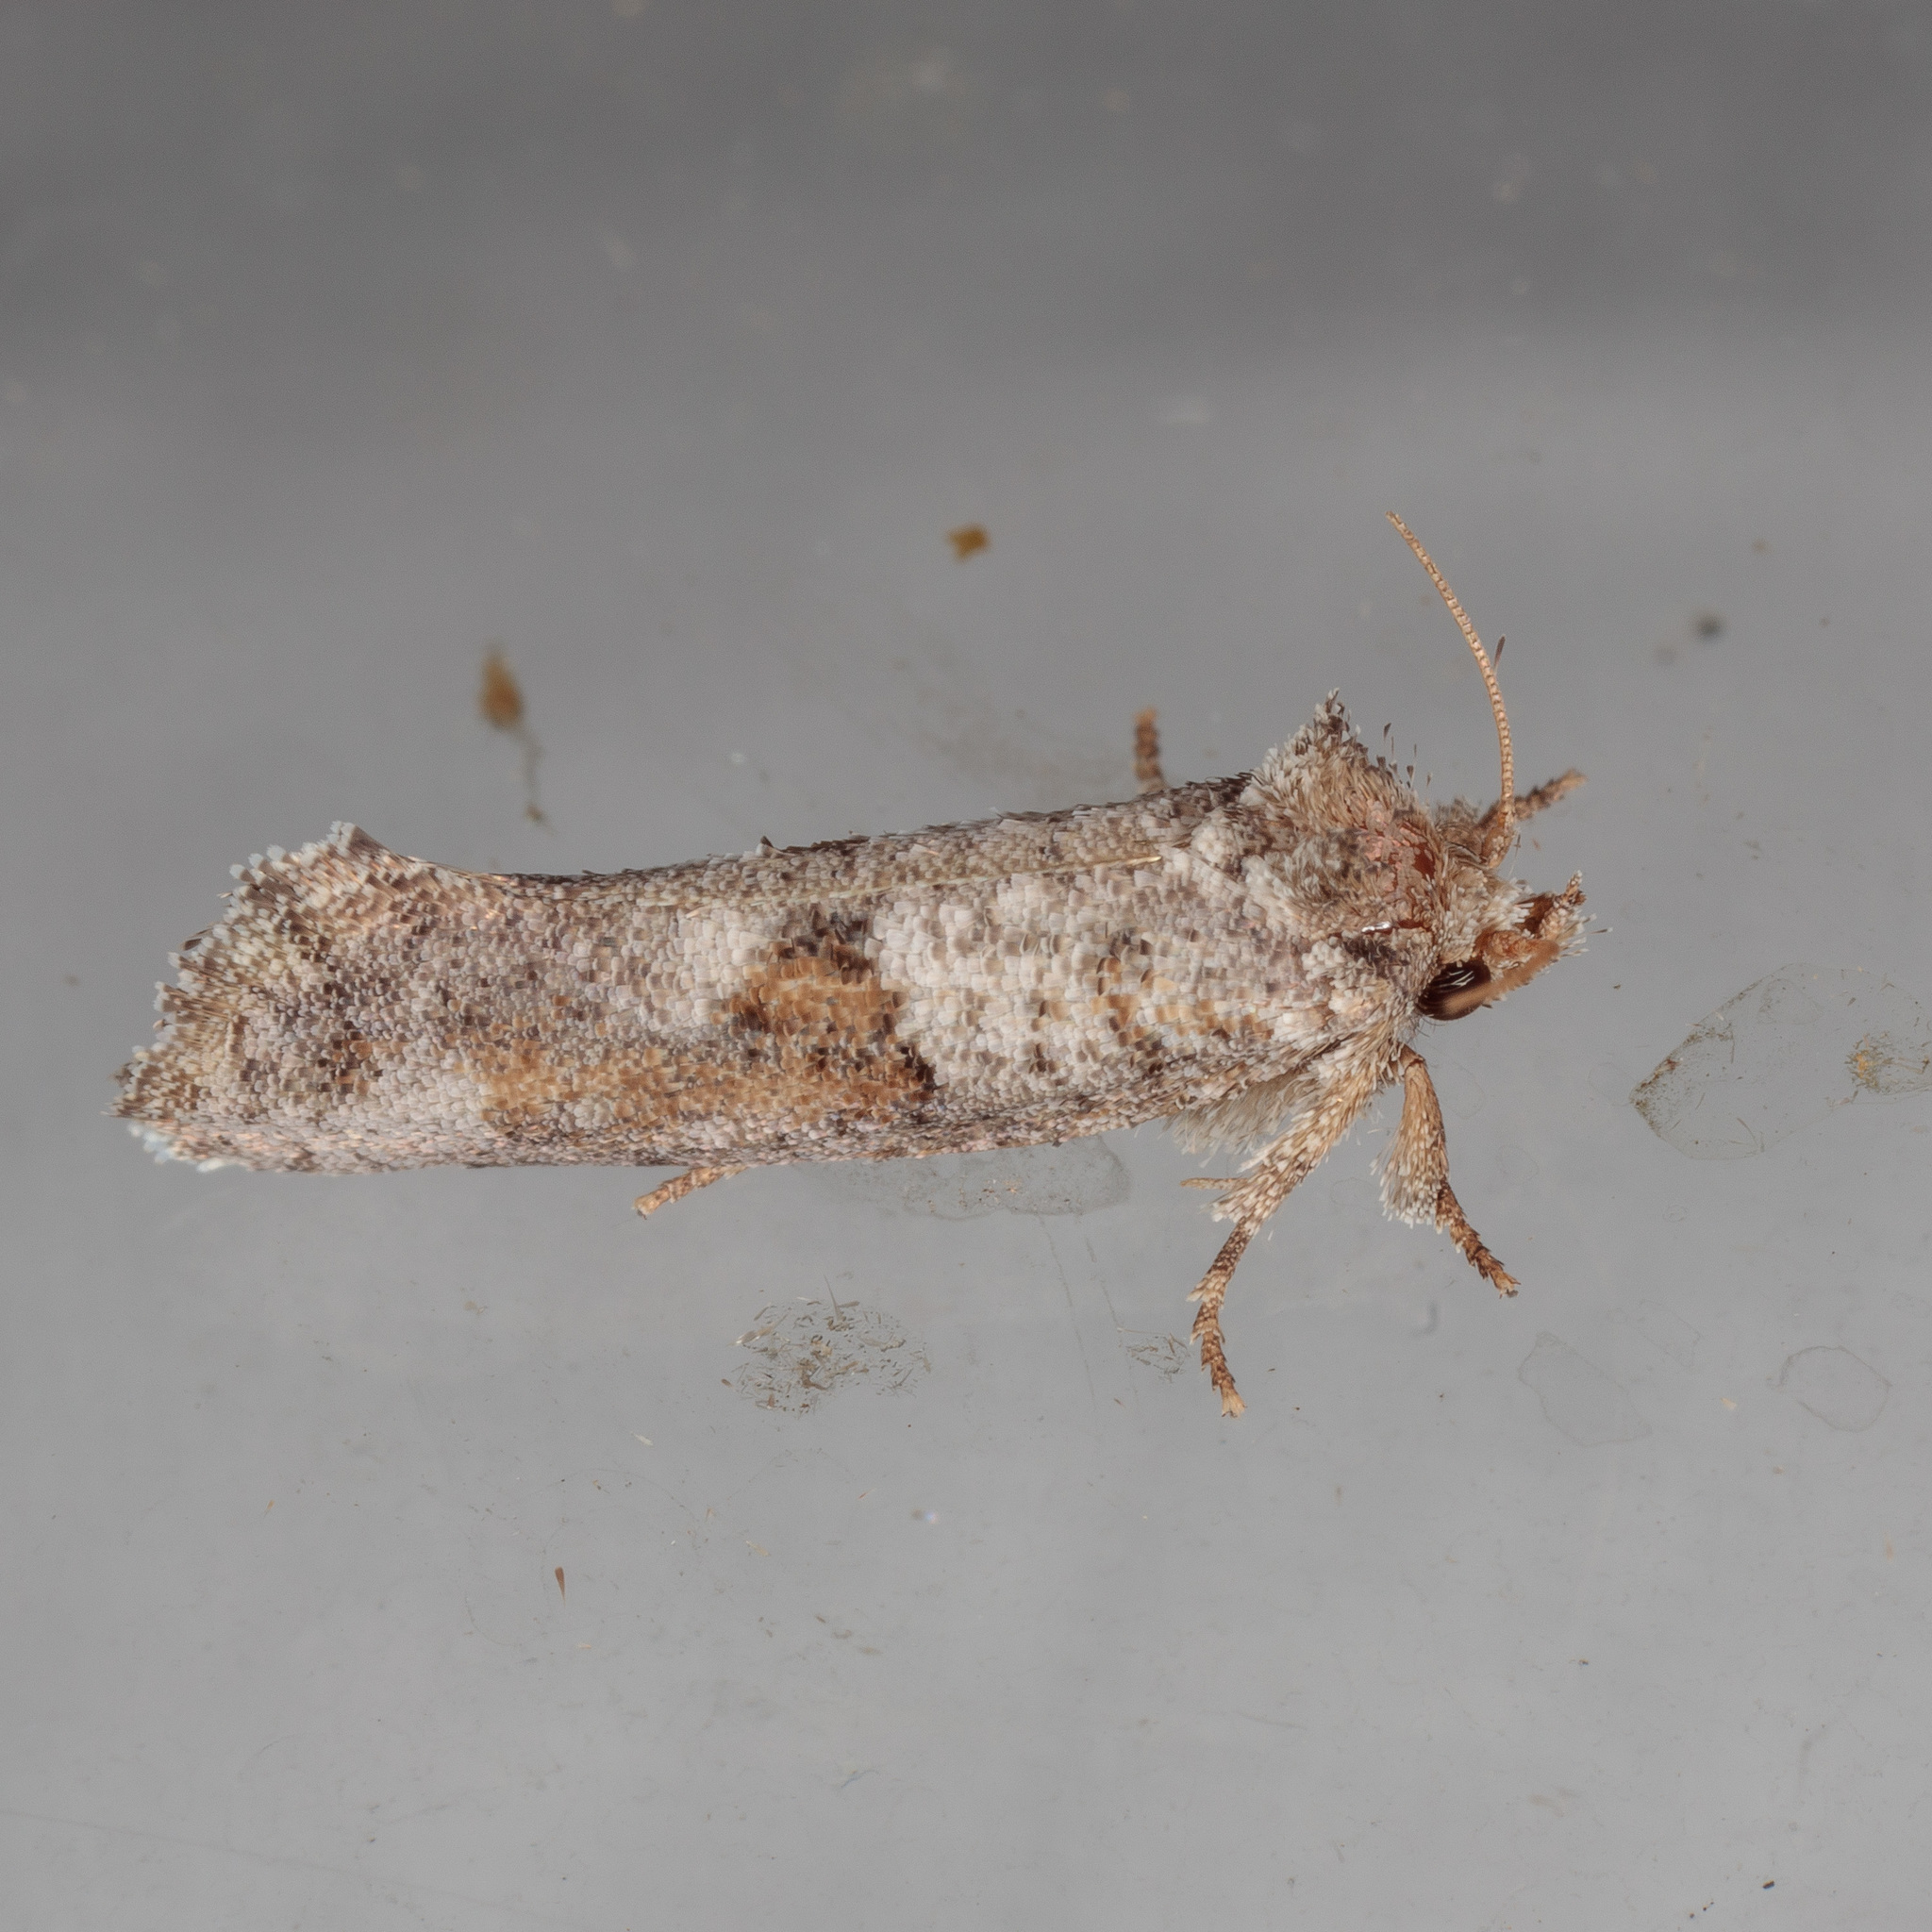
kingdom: Animalia
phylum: Arthropoda
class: Insecta
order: Lepidoptera
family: Tineidae
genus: Acrolophus
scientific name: Acrolophus piger
